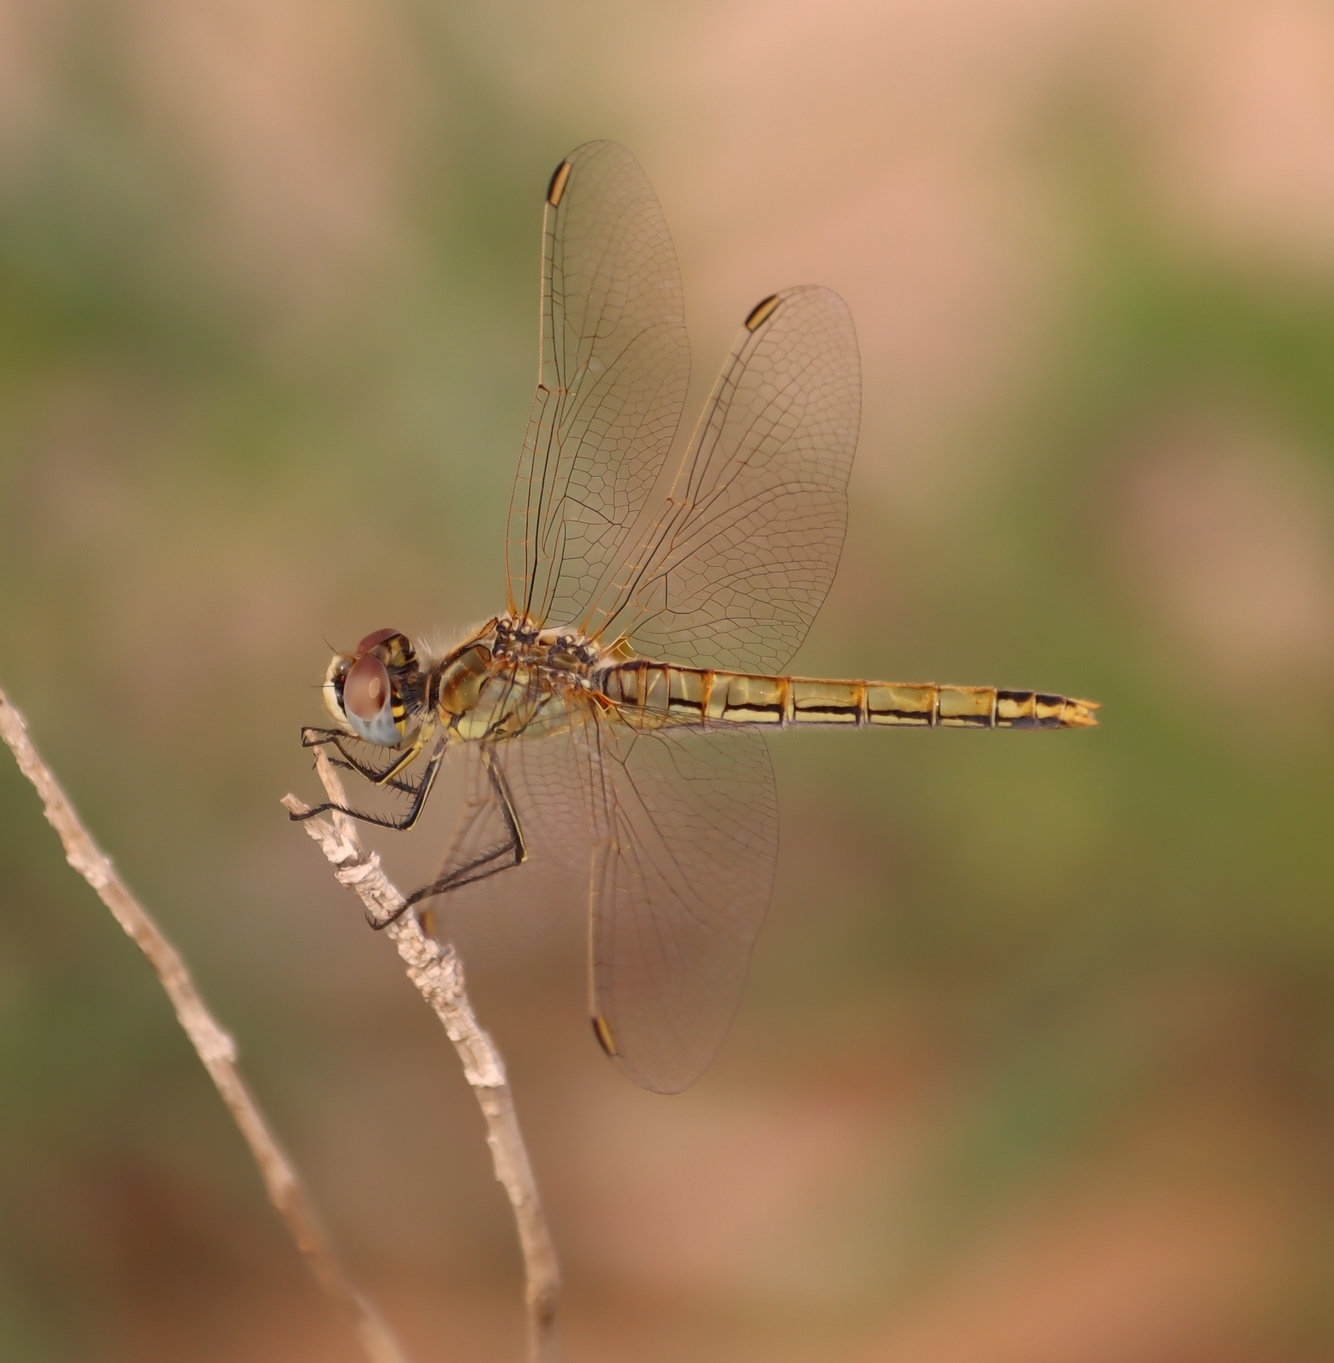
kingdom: Animalia
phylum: Arthropoda
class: Insecta
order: Odonata
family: Libellulidae
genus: Sympetrum
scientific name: Sympetrum fonscolombii
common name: Red-veined darter
